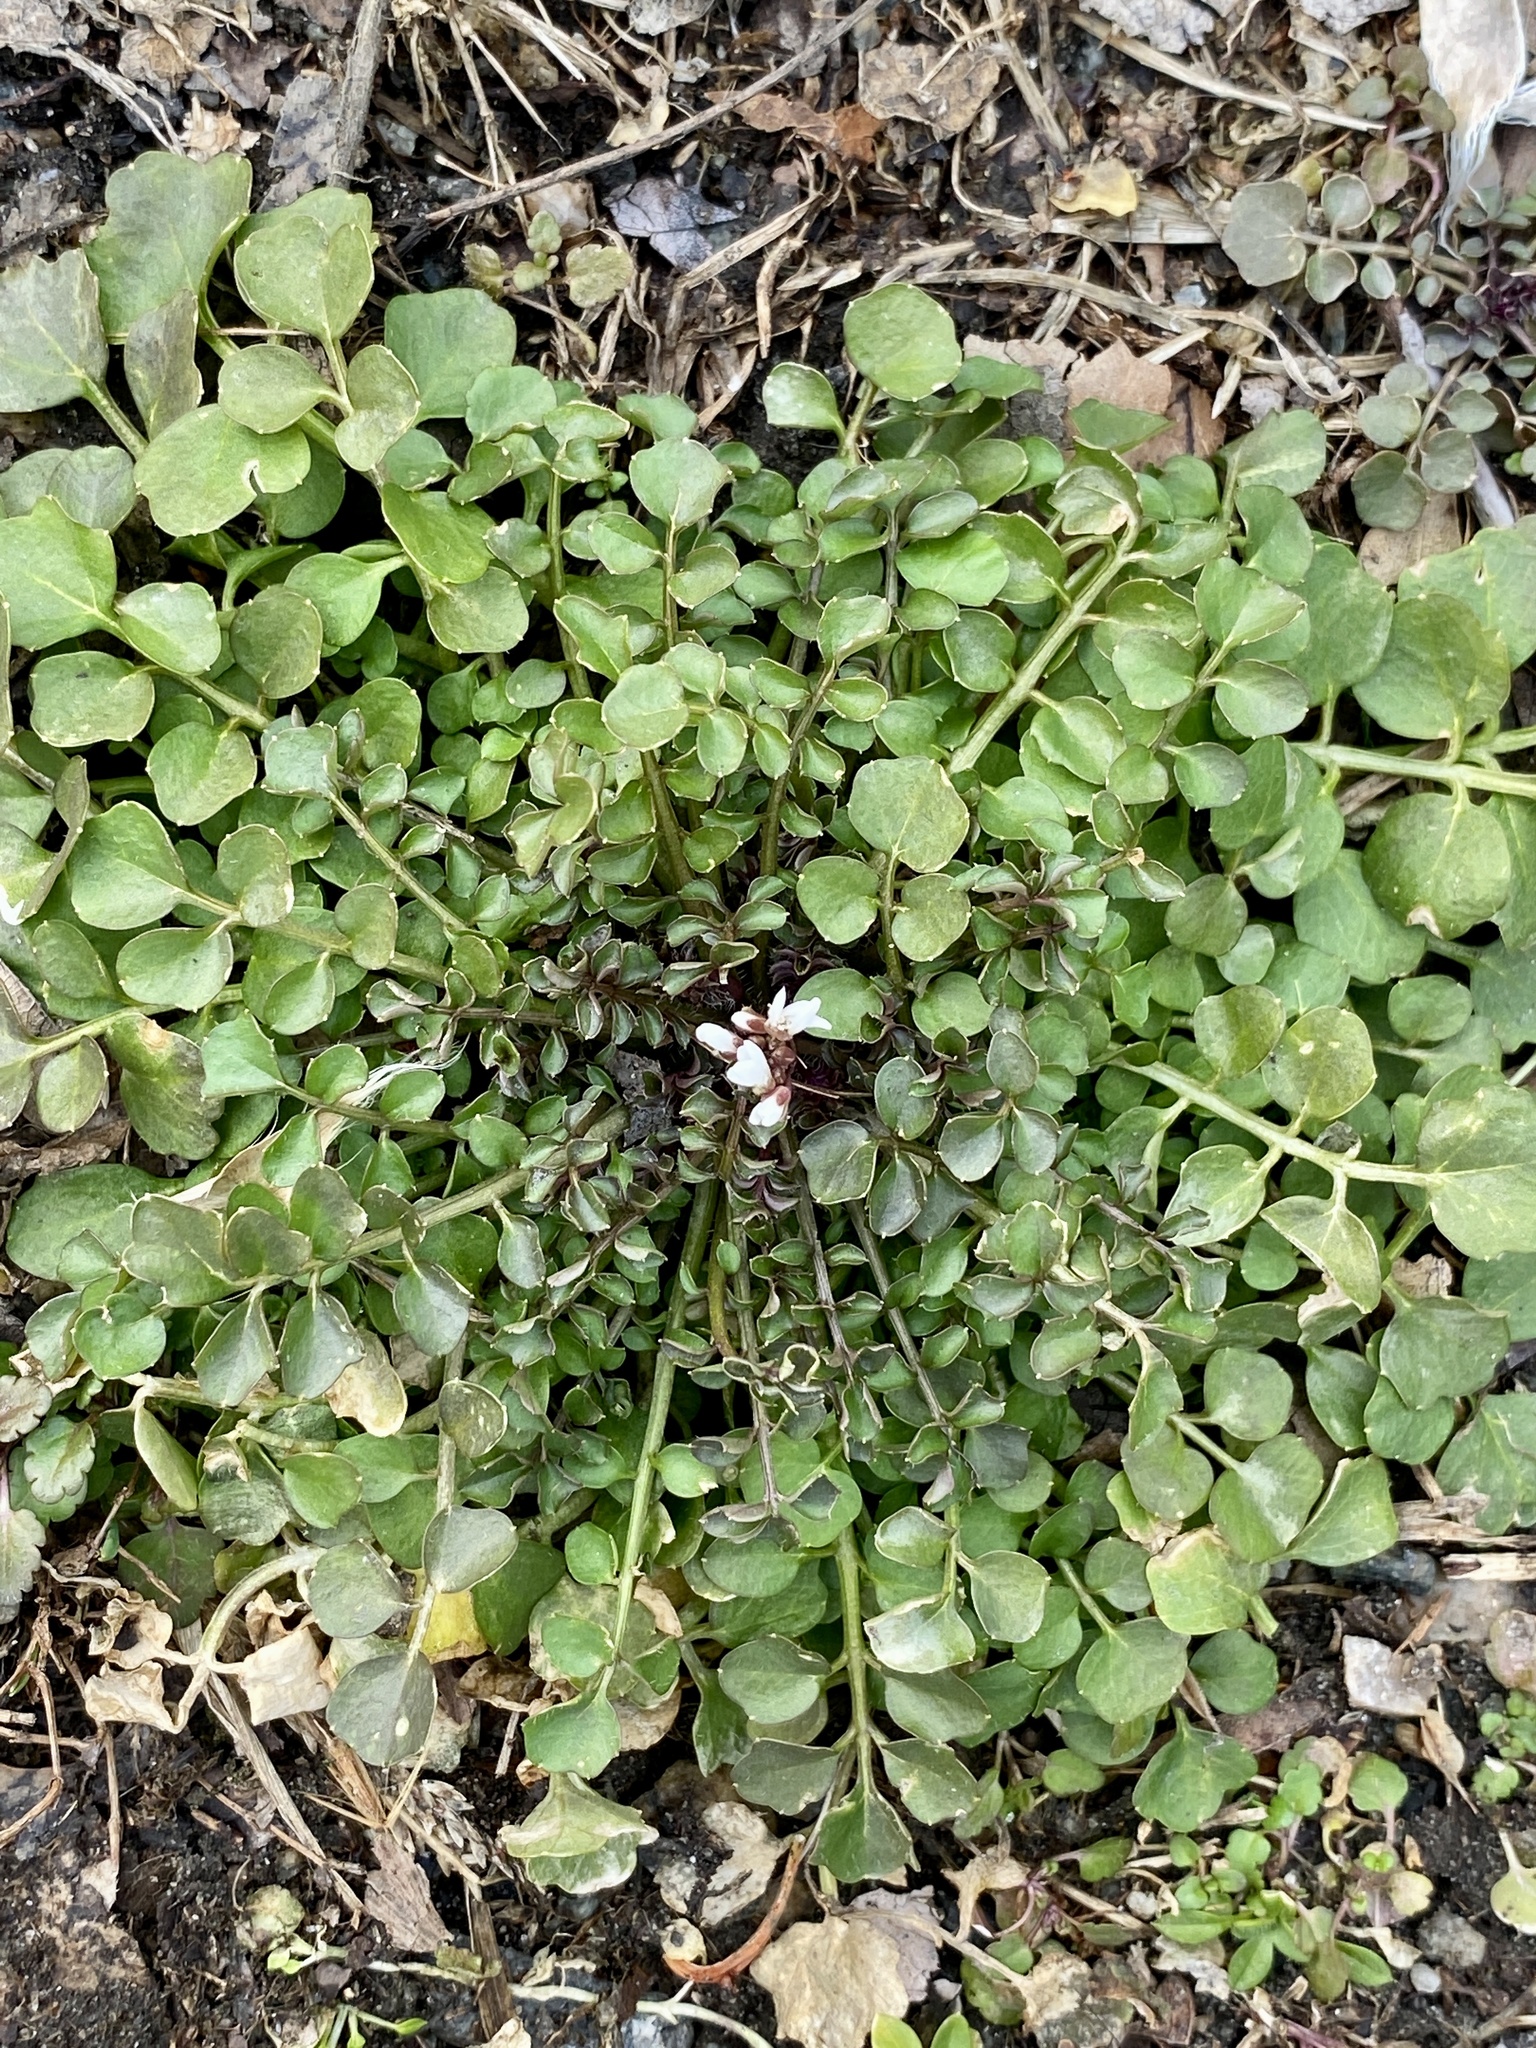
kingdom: Plantae
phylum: Tracheophyta
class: Magnoliopsida
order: Brassicales
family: Brassicaceae
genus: Cardamine
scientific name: Cardamine hirsuta
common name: Hairy bittercress
